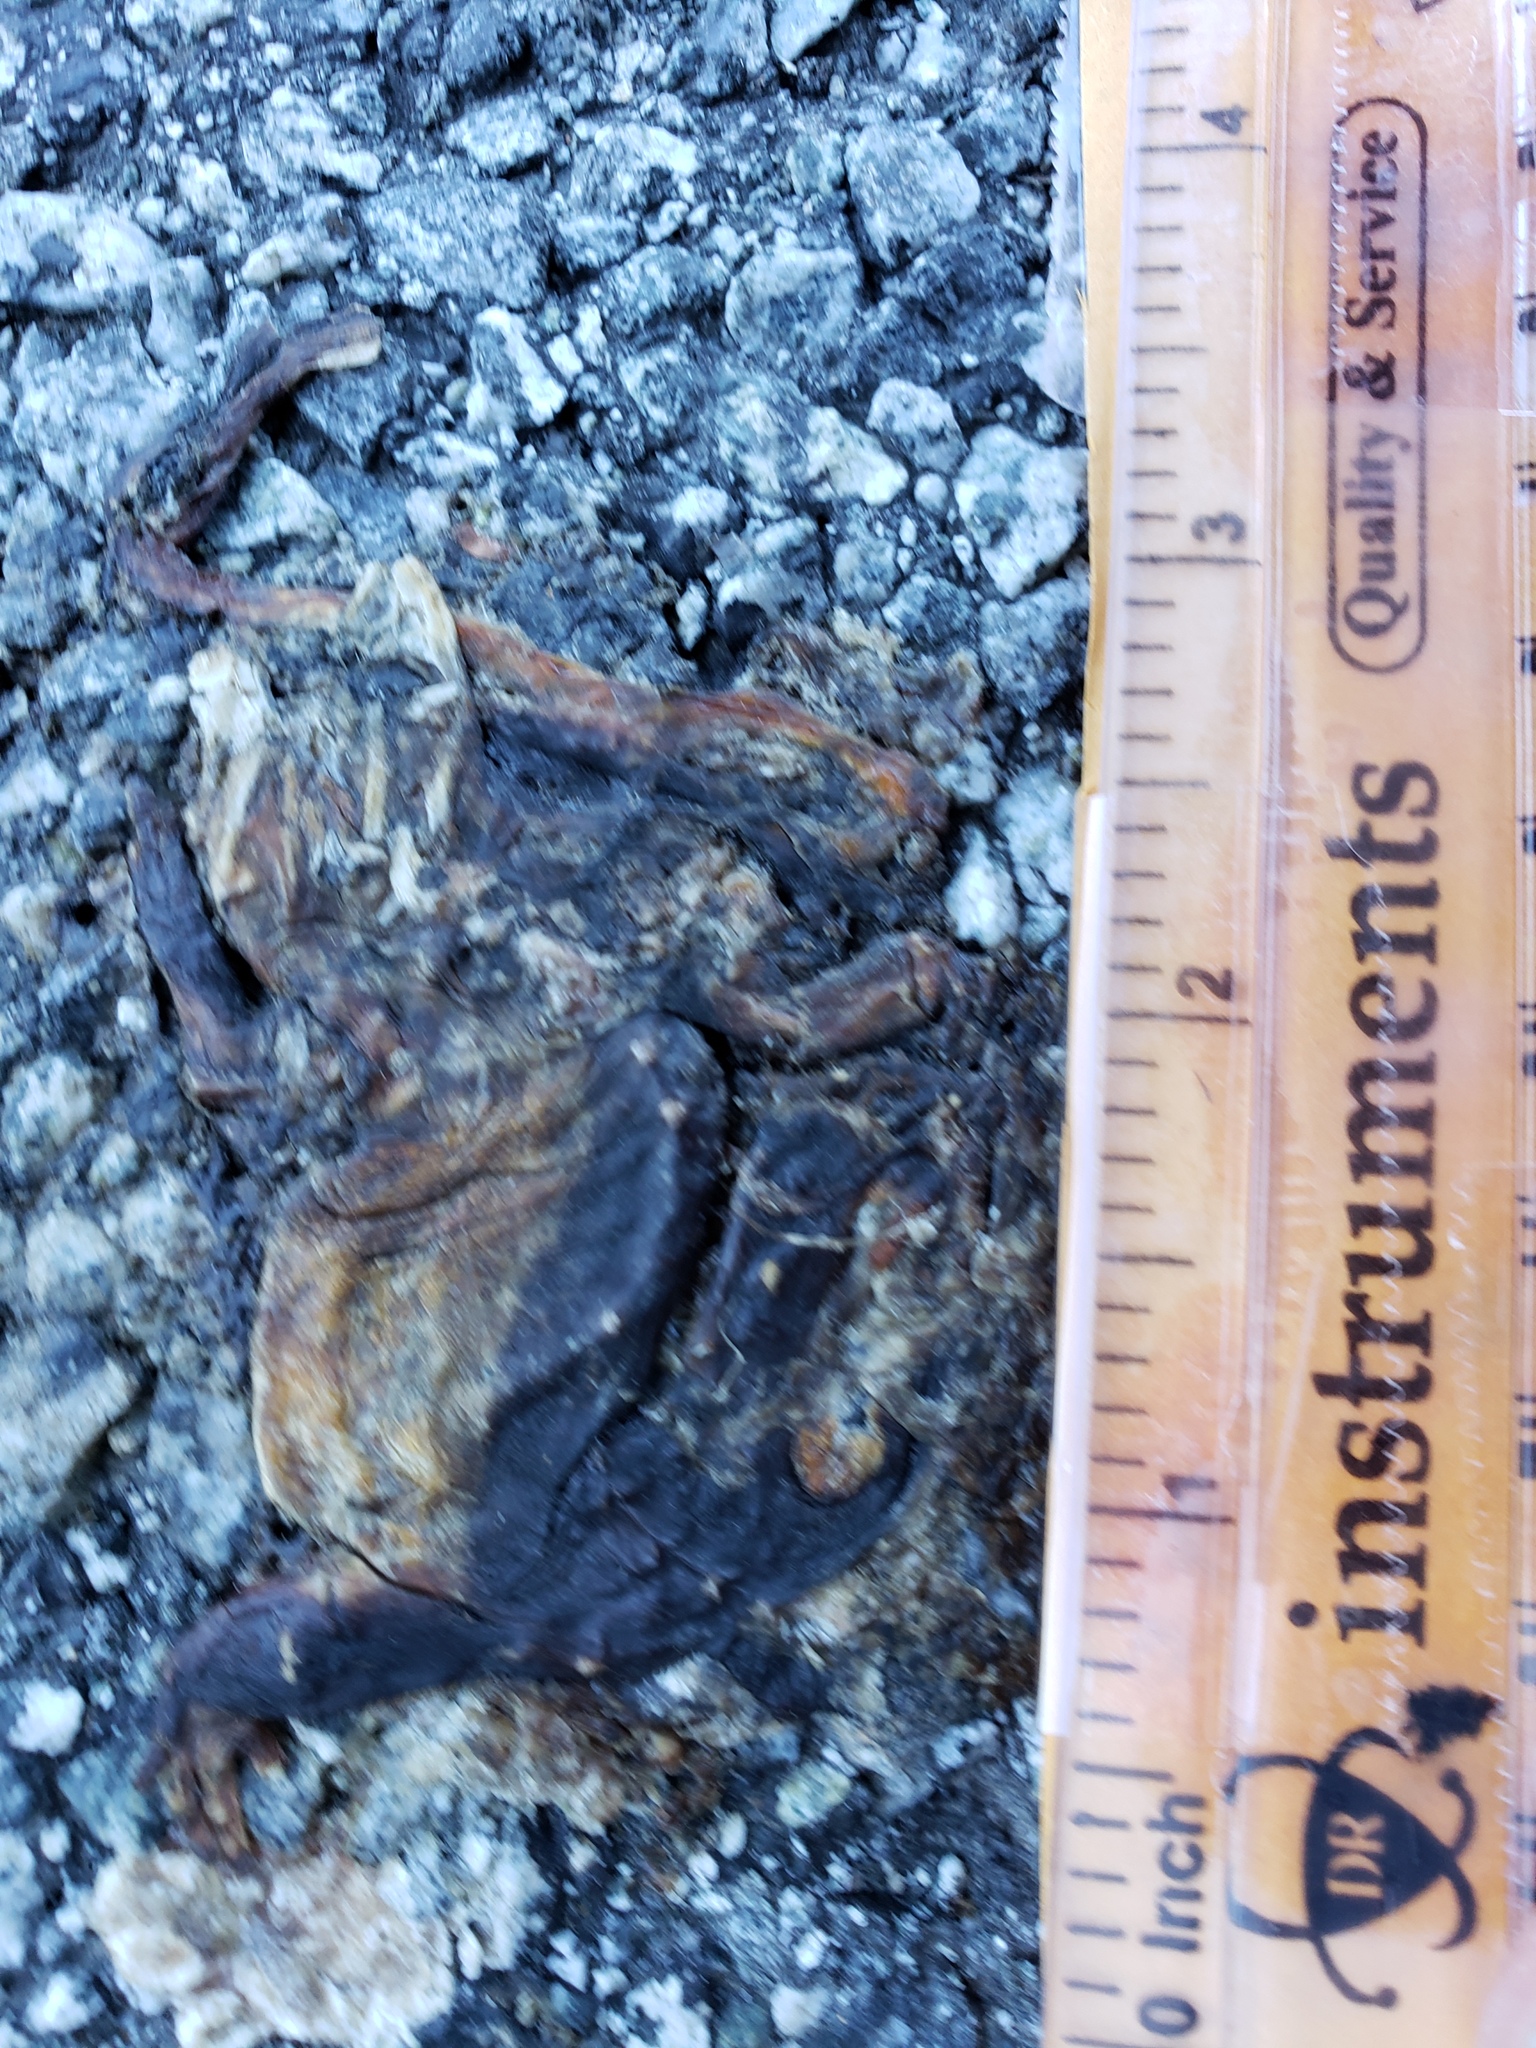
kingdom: Animalia
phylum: Chordata
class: Amphibia
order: Caudata
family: Salamandridae
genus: Taricha
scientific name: Taricha
